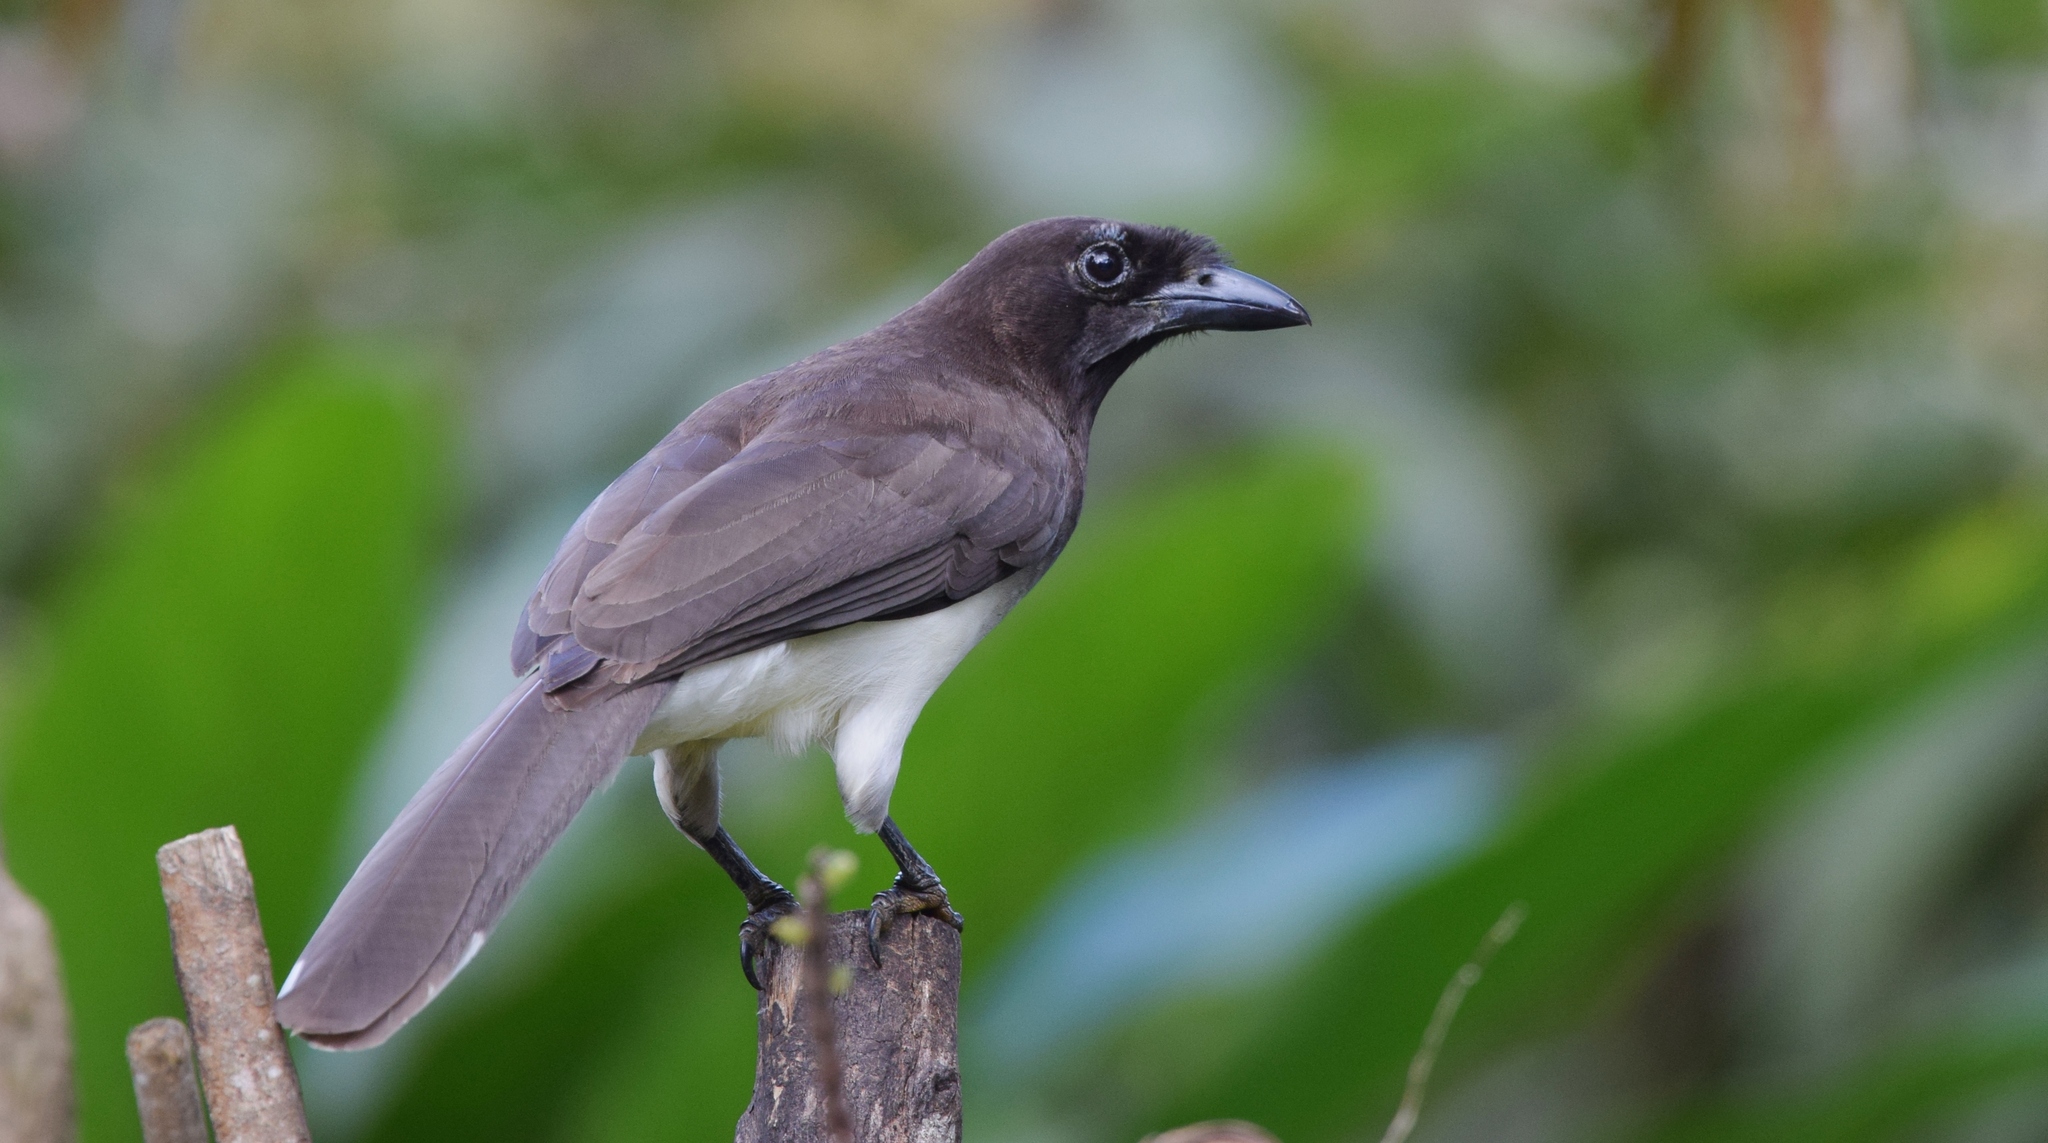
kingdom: Animalia
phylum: Chordata
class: Aves
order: Passeriformes
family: Corvidae
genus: Psilorhinus
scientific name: Psilorhinus morio
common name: Brown jay
